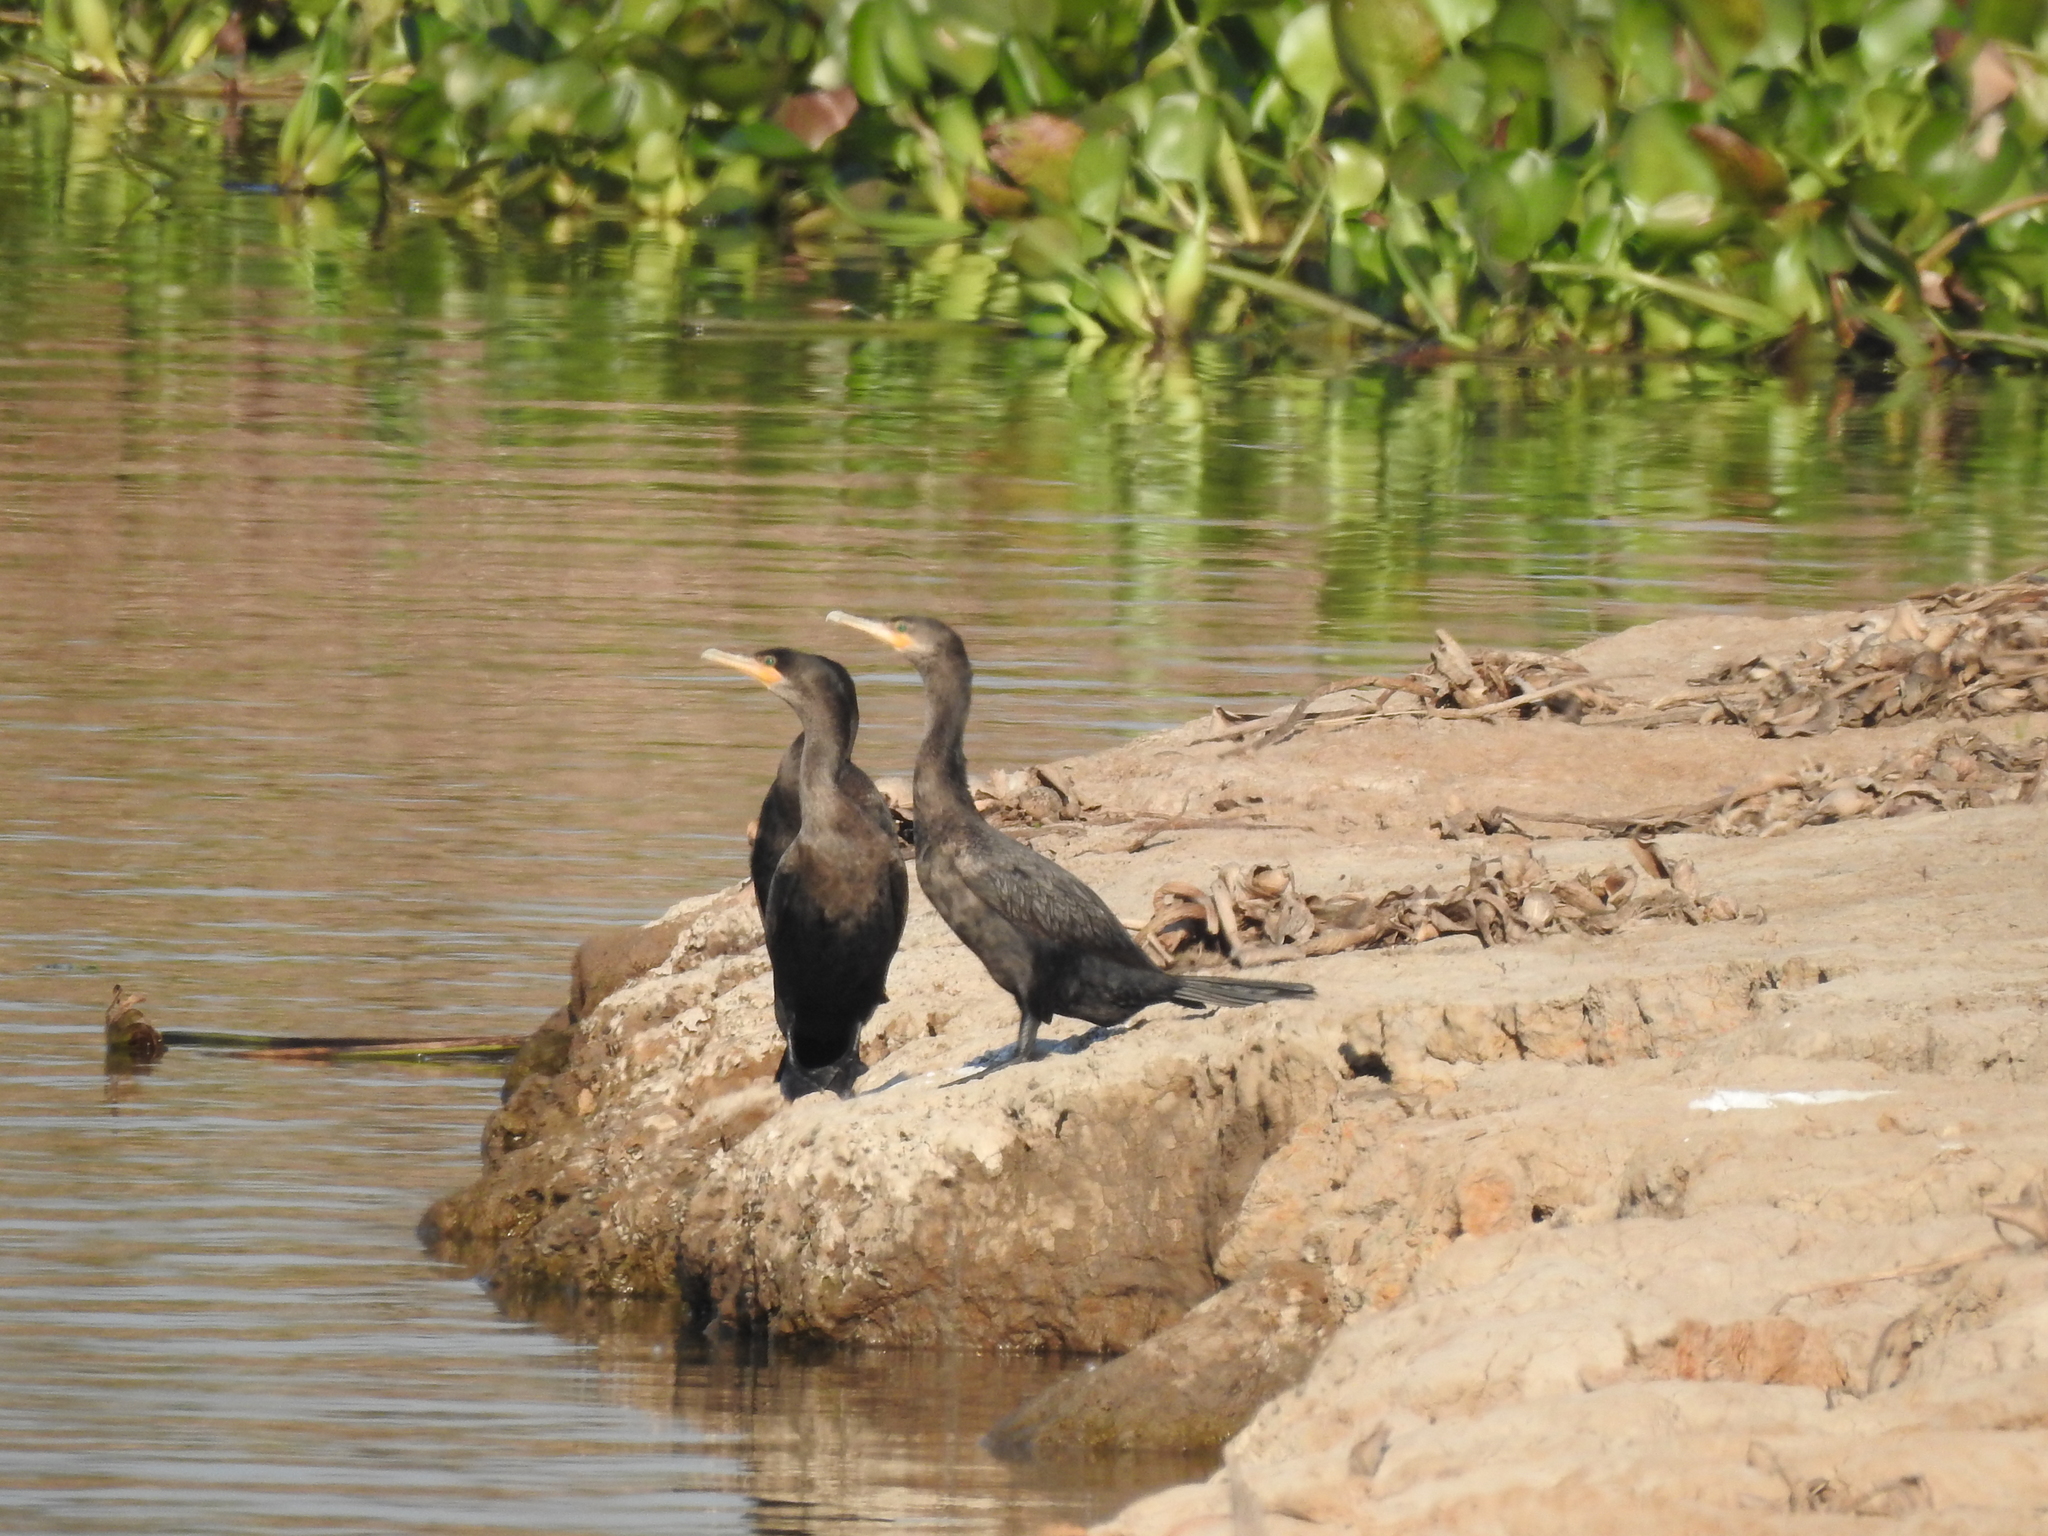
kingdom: Animalia
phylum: Chordata
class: Aves
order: Suliformes
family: Phalacrocoracidae
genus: Phalacrocorax
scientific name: Phalacrocorax brasilianus
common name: Neotropic cormorant
